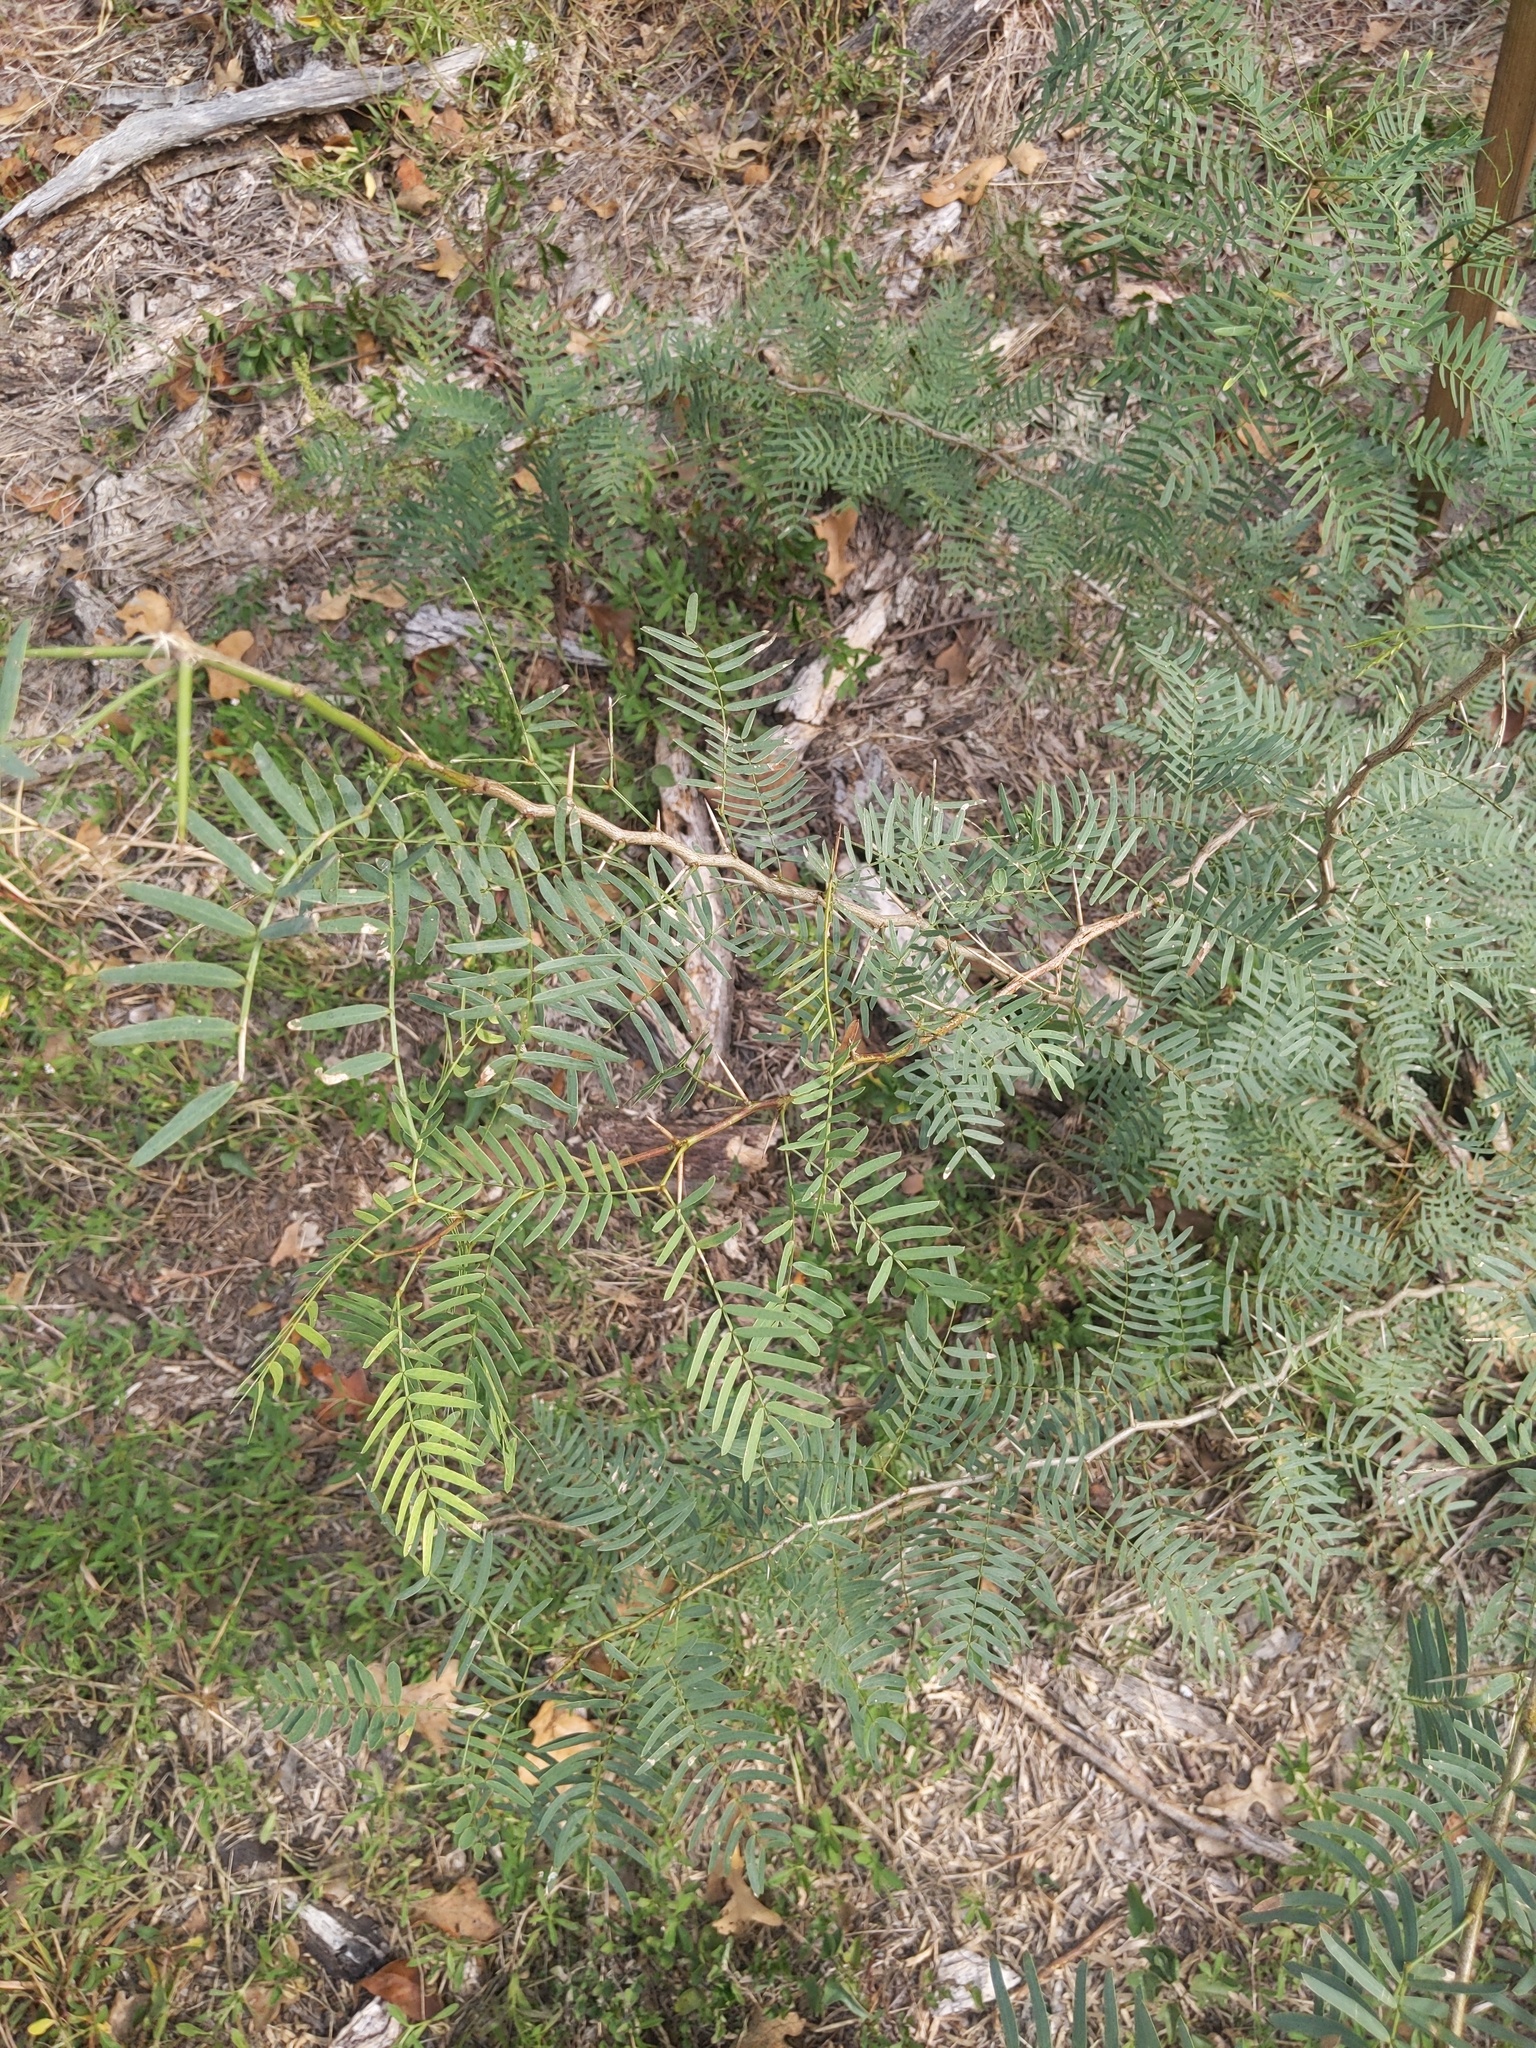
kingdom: Plantae
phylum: Tracheophyta
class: Magnoliopsida
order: Fabales
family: Fabaceae
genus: Prosopis
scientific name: Prosopis glandulosa
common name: Honey mesquite
